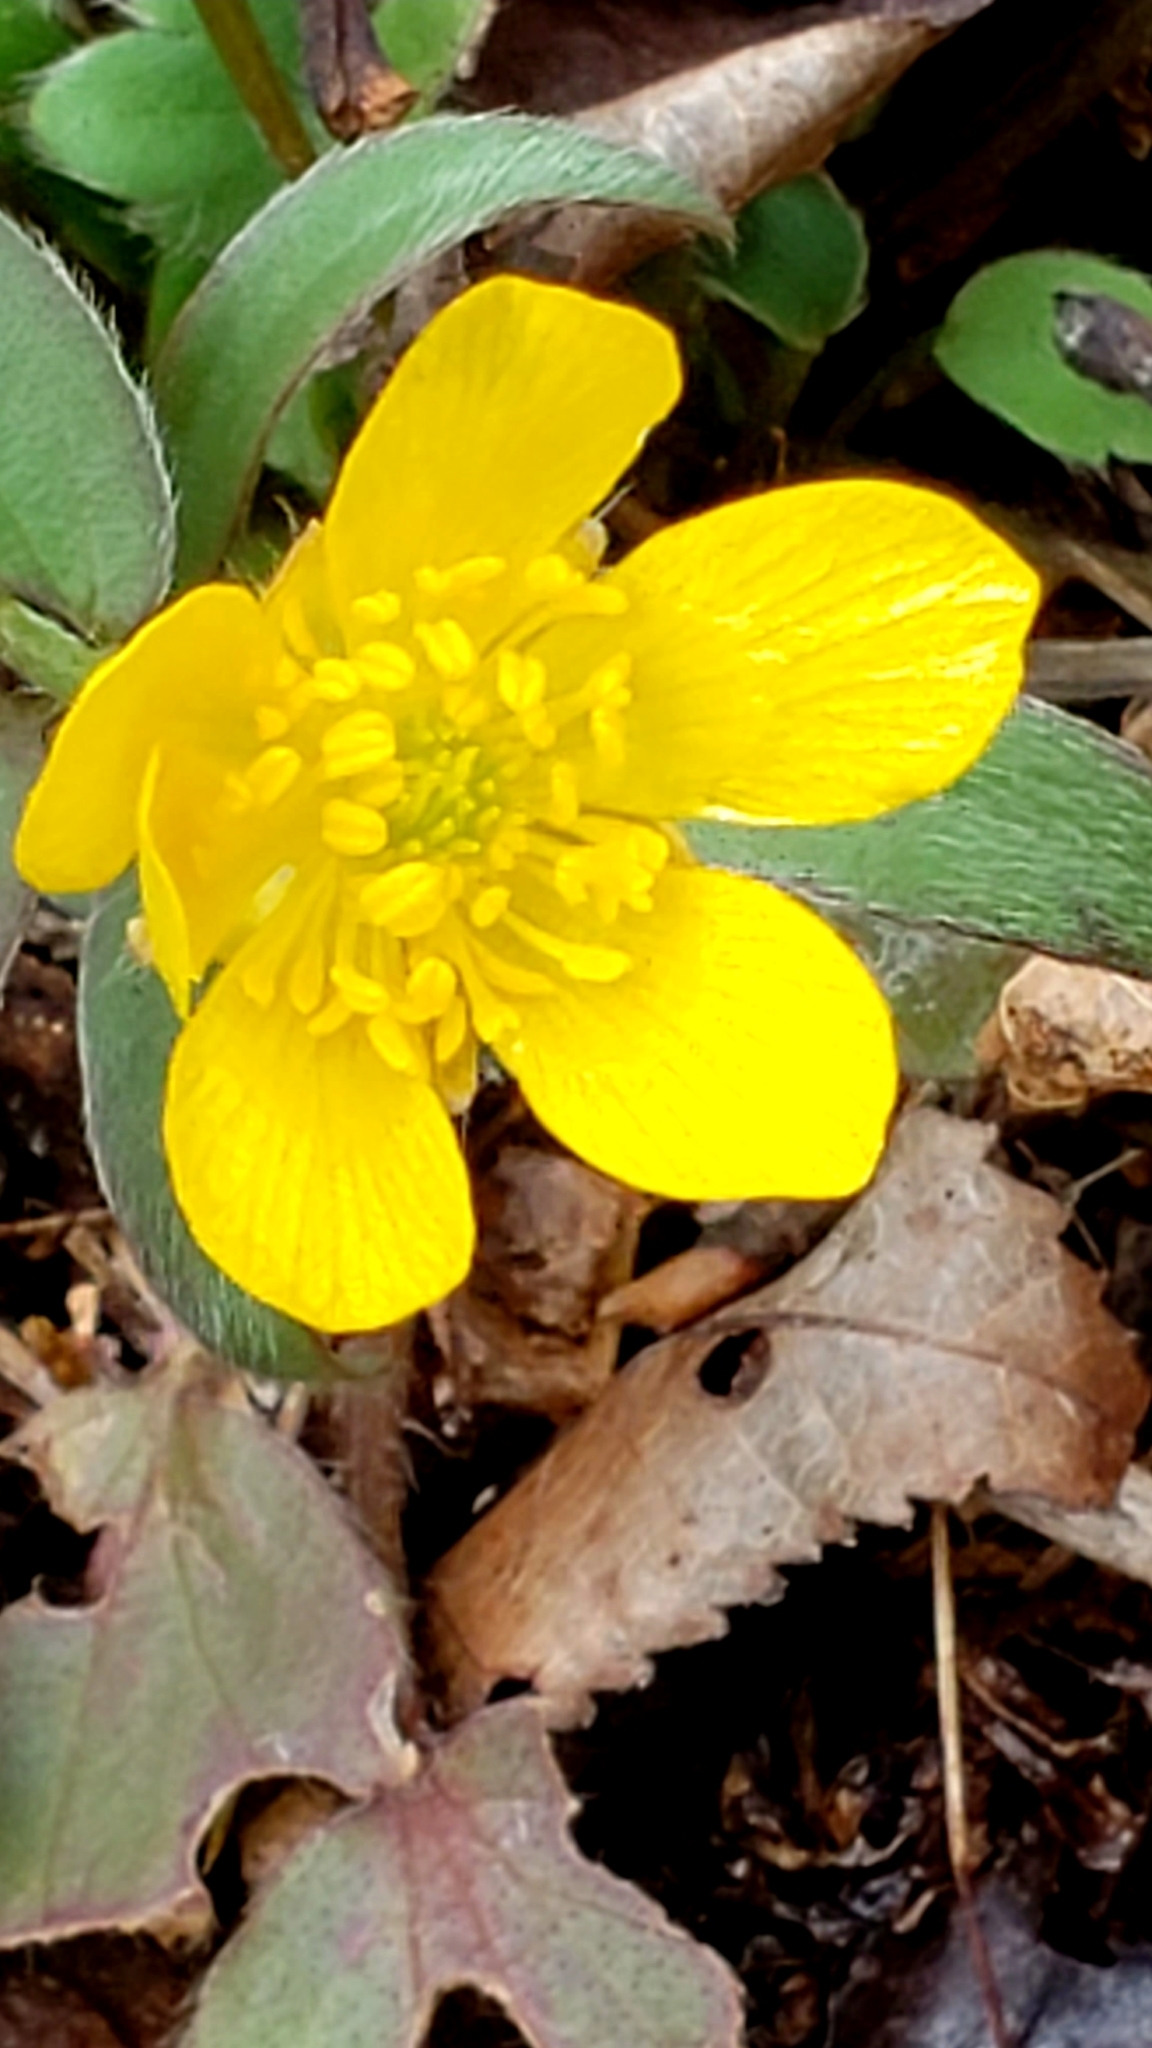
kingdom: Plantae
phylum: Tracheophyta
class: Magnoliopsida
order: Ranunculales
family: Ranunculaceae
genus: Ranunculus
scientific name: Ranunculus fascicularis
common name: Early buttercup
